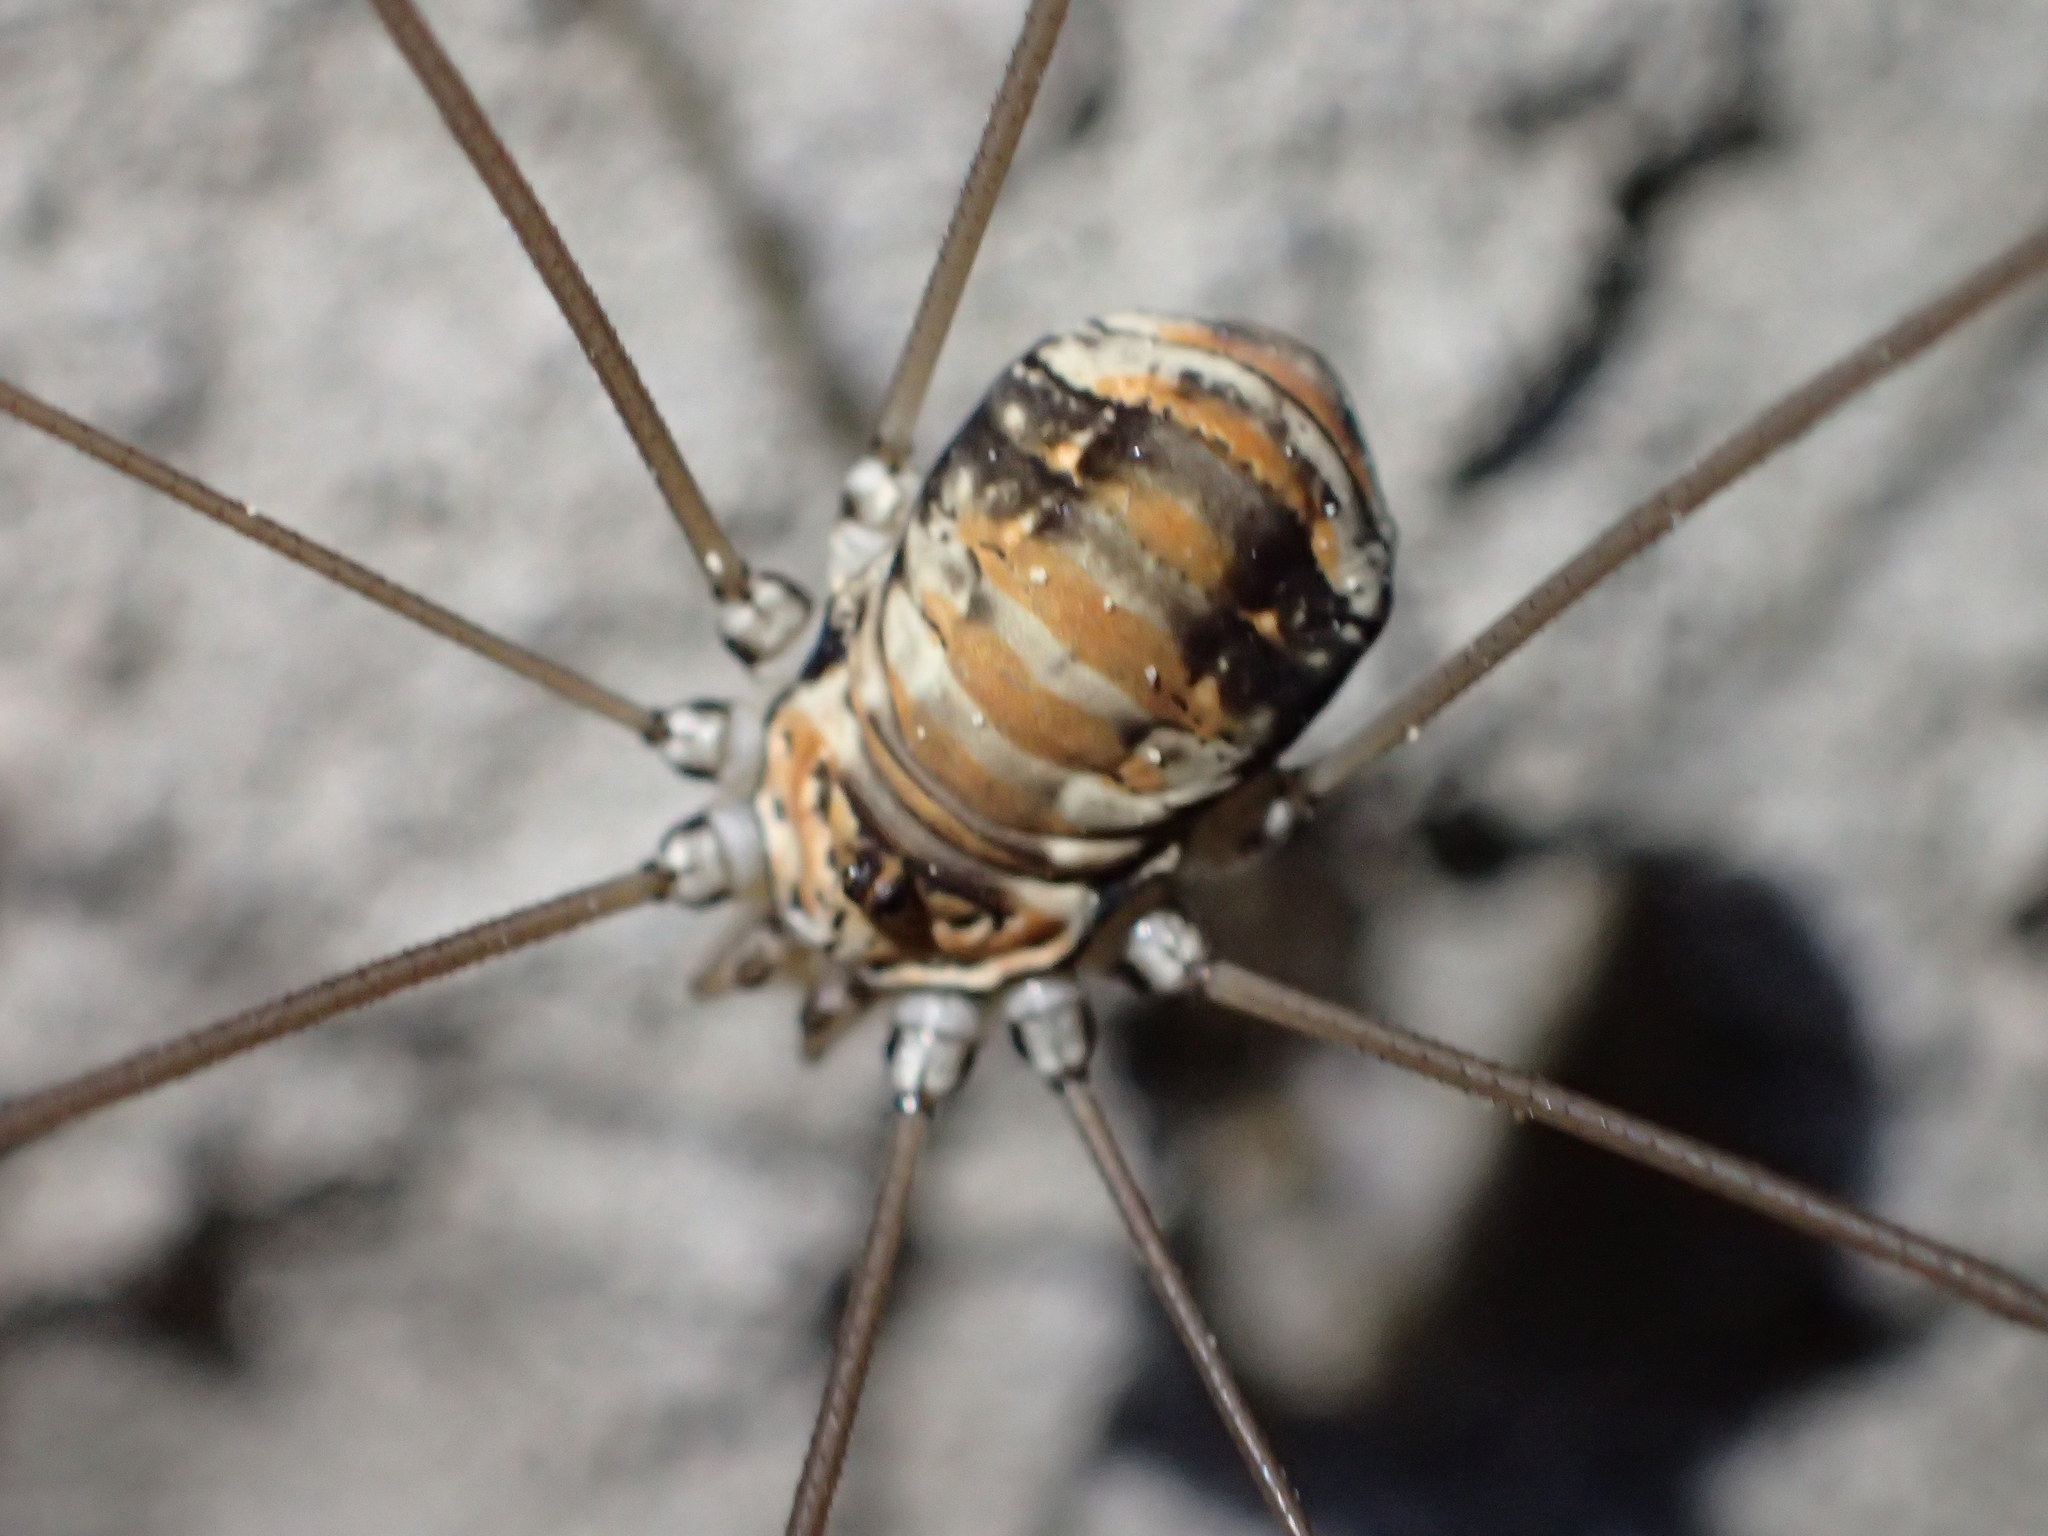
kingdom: Animalia
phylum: Arthropoda
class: Arachnida
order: Opiliones
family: Sclerosomatidae
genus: Leiobunum
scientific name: Leiobunum limbatum
